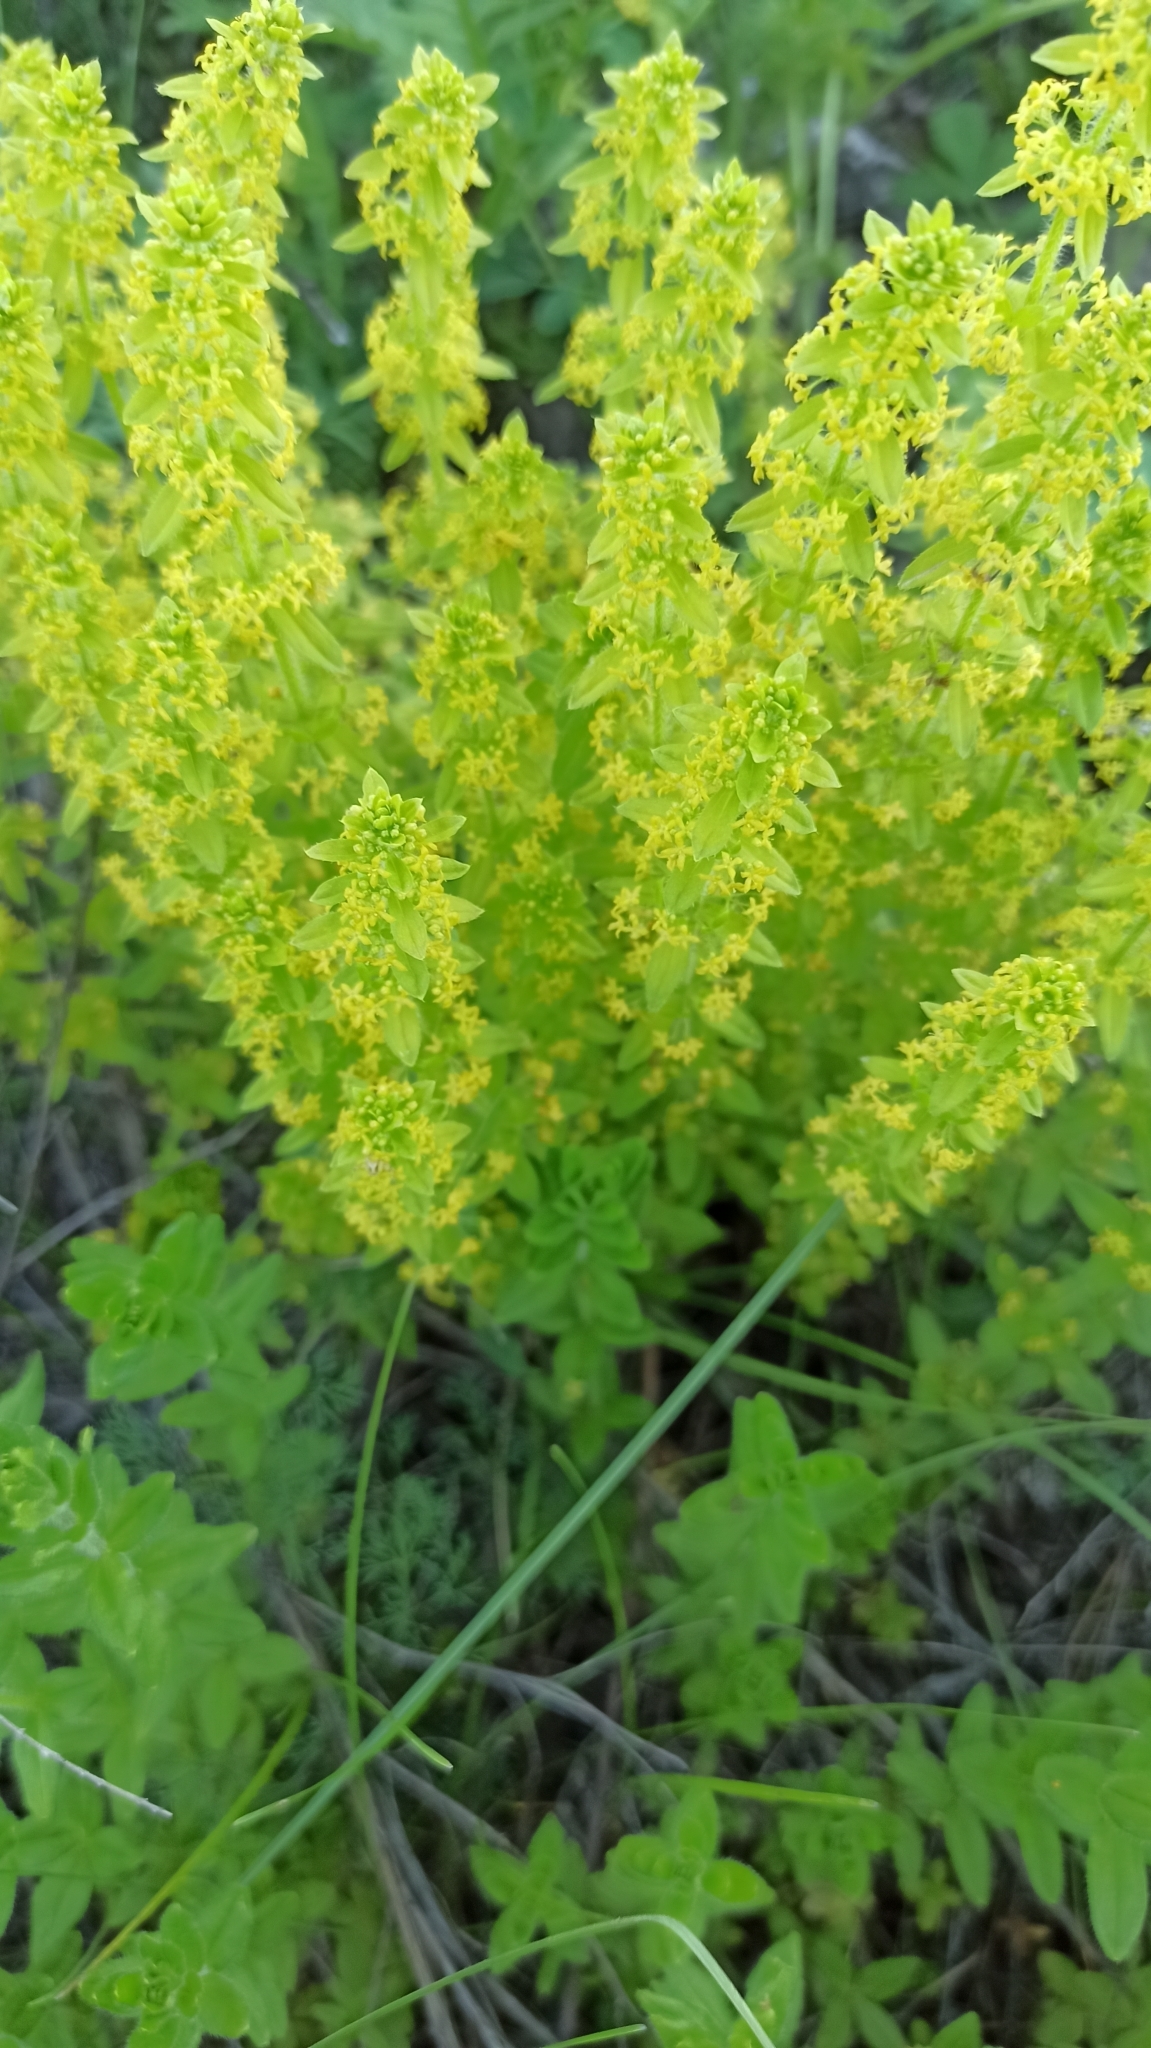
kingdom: Plantae
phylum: Tracheophyta
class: Magnoliopsida
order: Gentianales
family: Rubiaceae
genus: Cruciata
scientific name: Cruciata laevipes
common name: Crosswort
